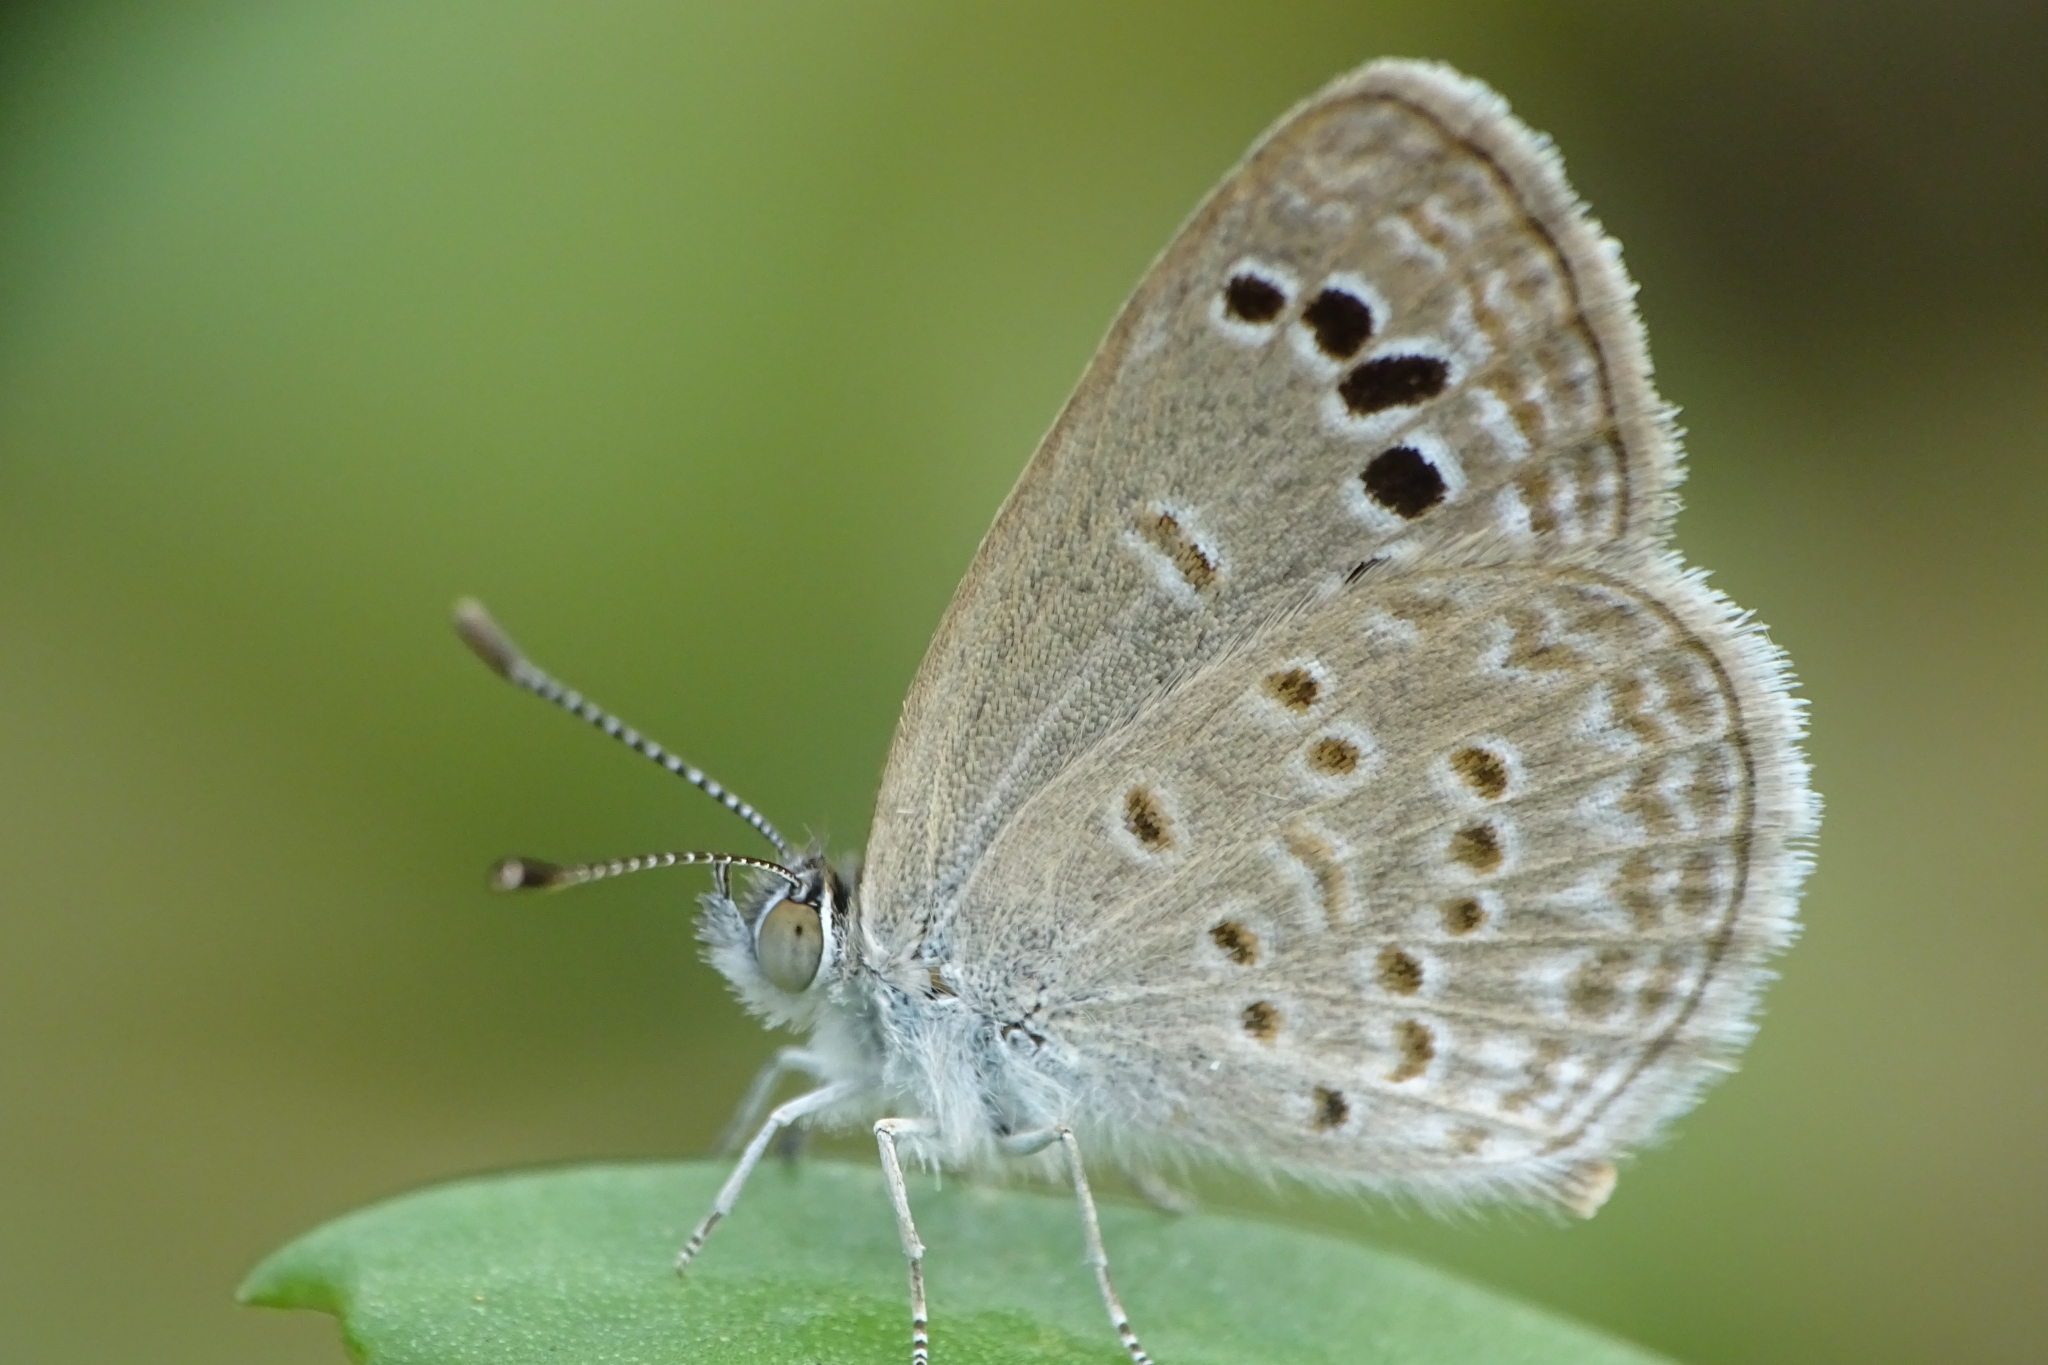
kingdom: Animalia
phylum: Arthropoda
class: Insecta
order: Lepidoptera
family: Lycaenidae
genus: Zizina
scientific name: Zizina otis
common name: Lesser grass blue
